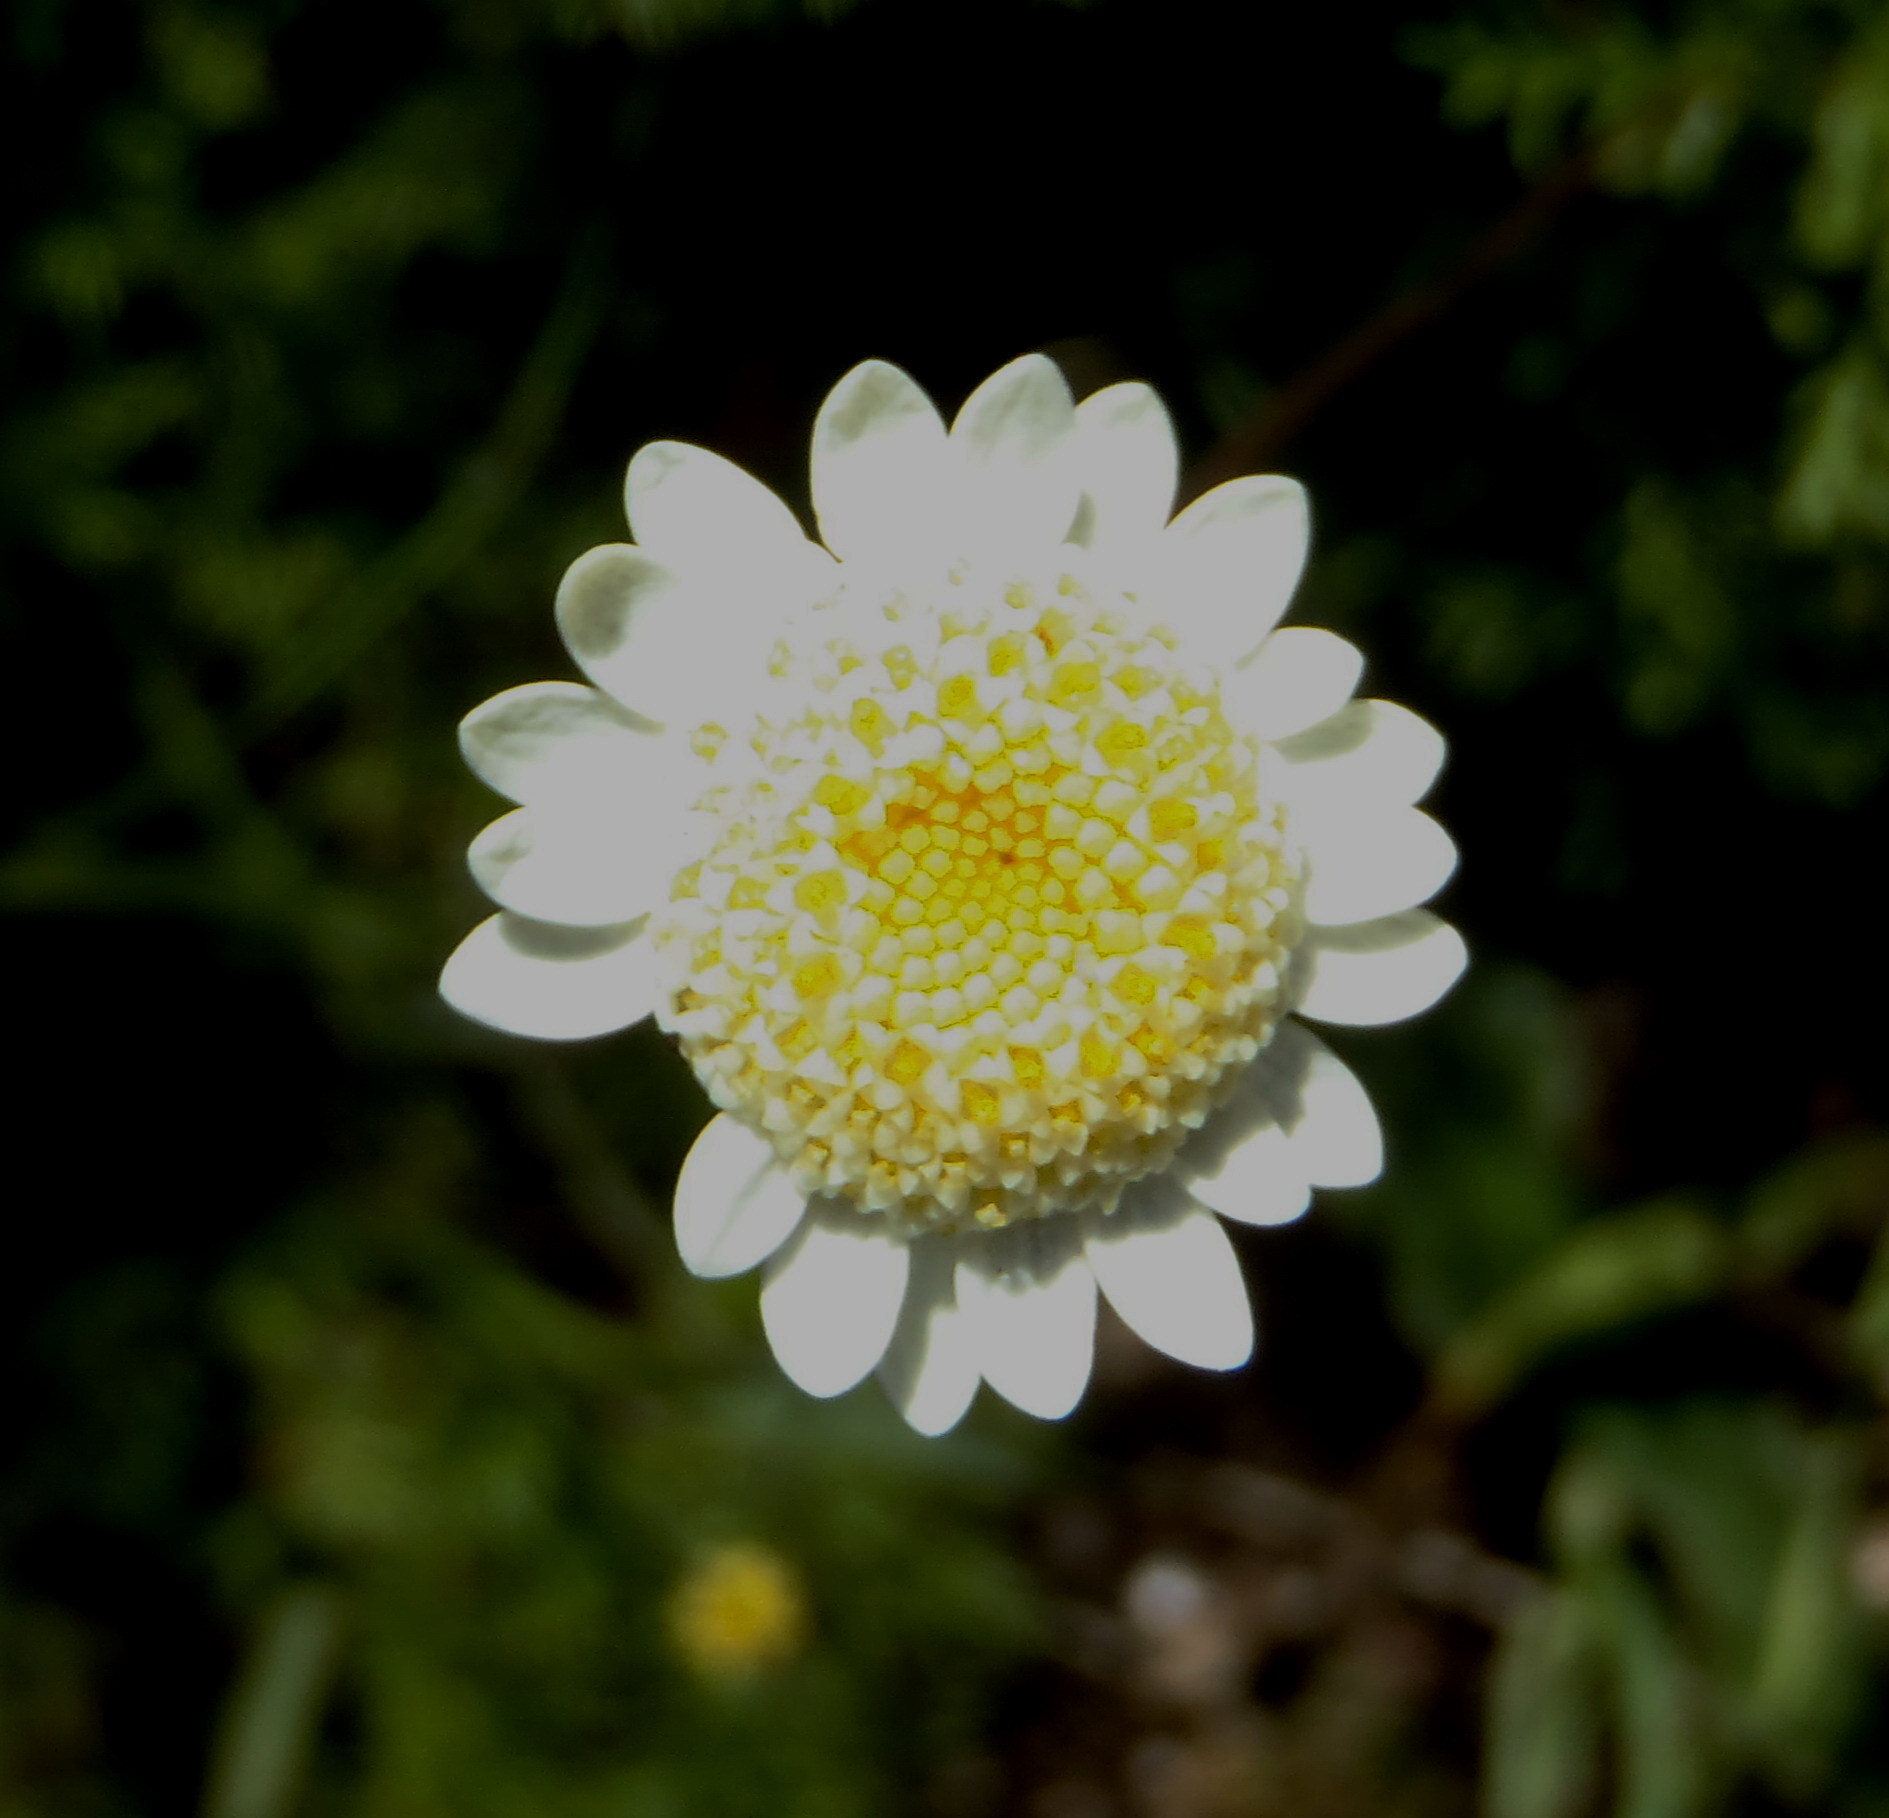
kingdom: Plantae
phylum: Tracheophyta
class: Magnoliopsida
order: Asterales
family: Asteraceae
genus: Cotula
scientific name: Cotula turbinata
